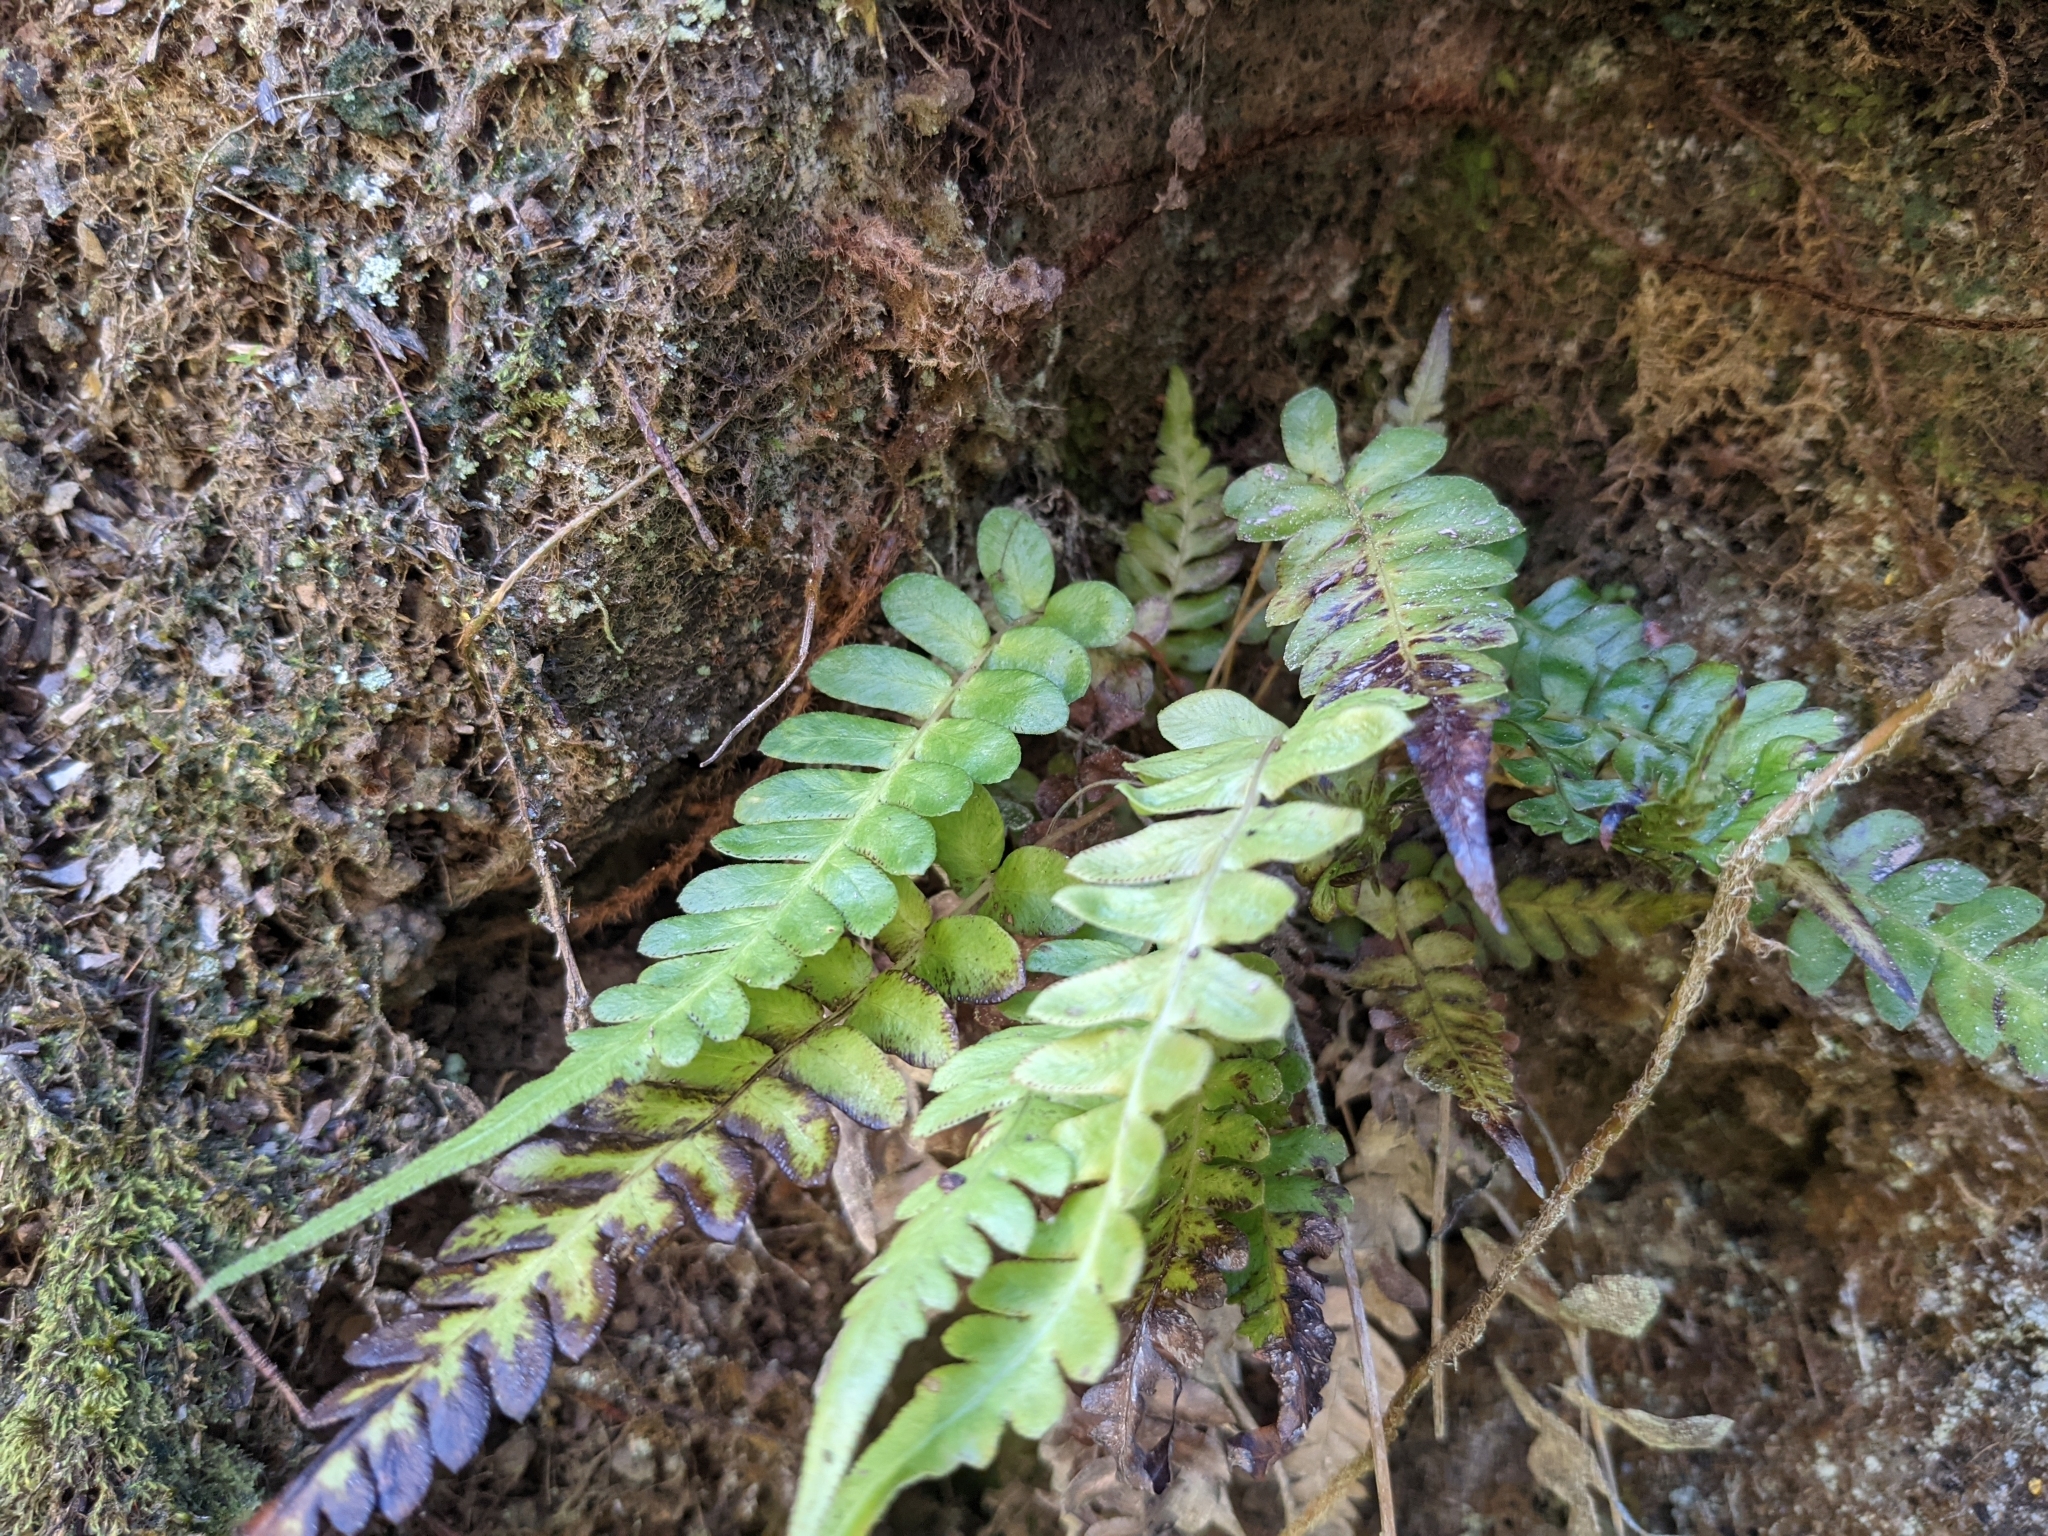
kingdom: Plantae
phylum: Tracheophyta
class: Polypodiopsida
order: Polypodiales
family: Blechnaceae
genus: Blechnum
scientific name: Blechnum appendiculatum
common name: Palm fern
